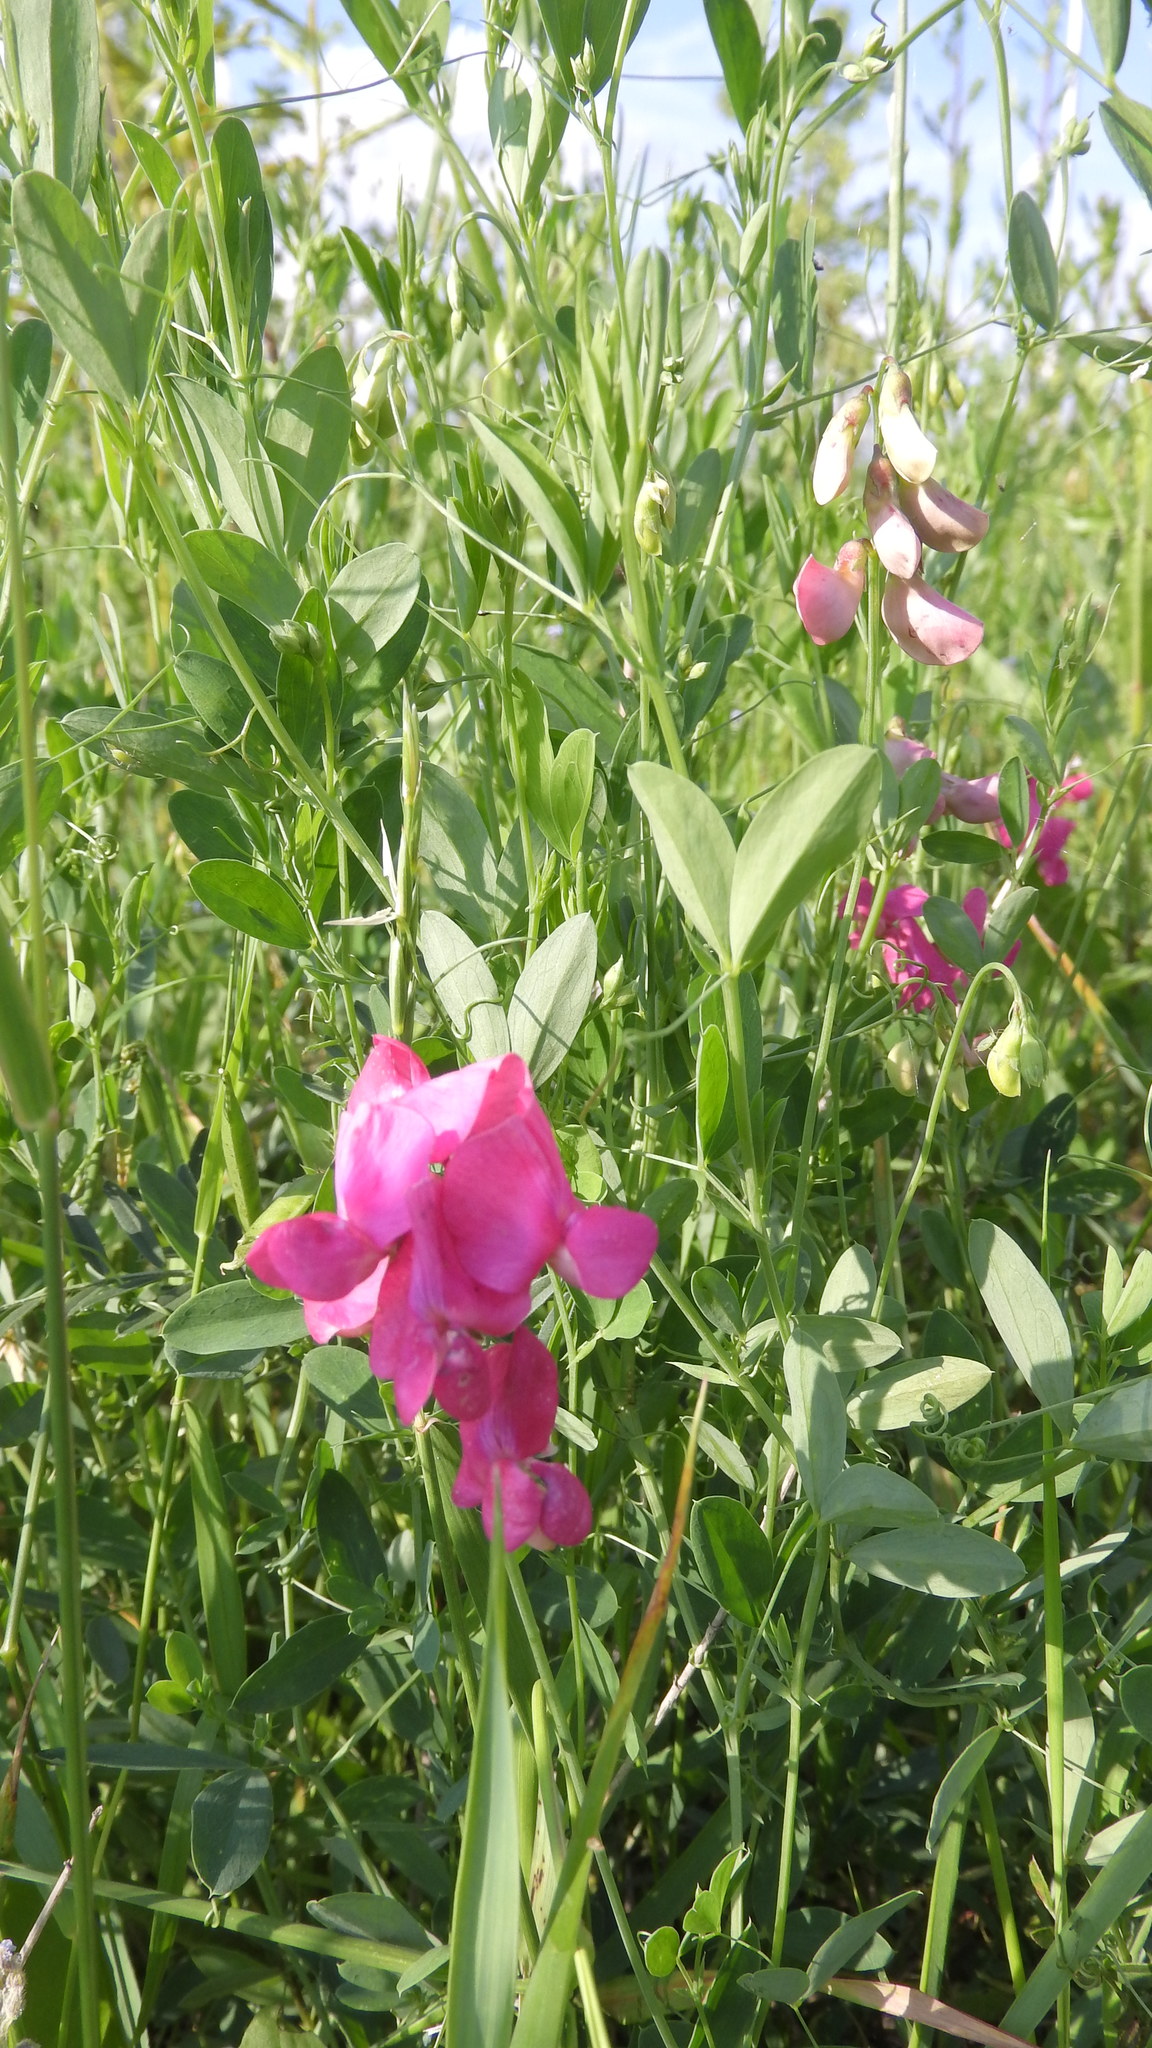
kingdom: Plantae
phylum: Tracheophyta
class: Magnoliopsida
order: Fabales
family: Fabaceae
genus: Lathyrus
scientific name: Lathyrus tuberosus
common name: Tuberous pea
